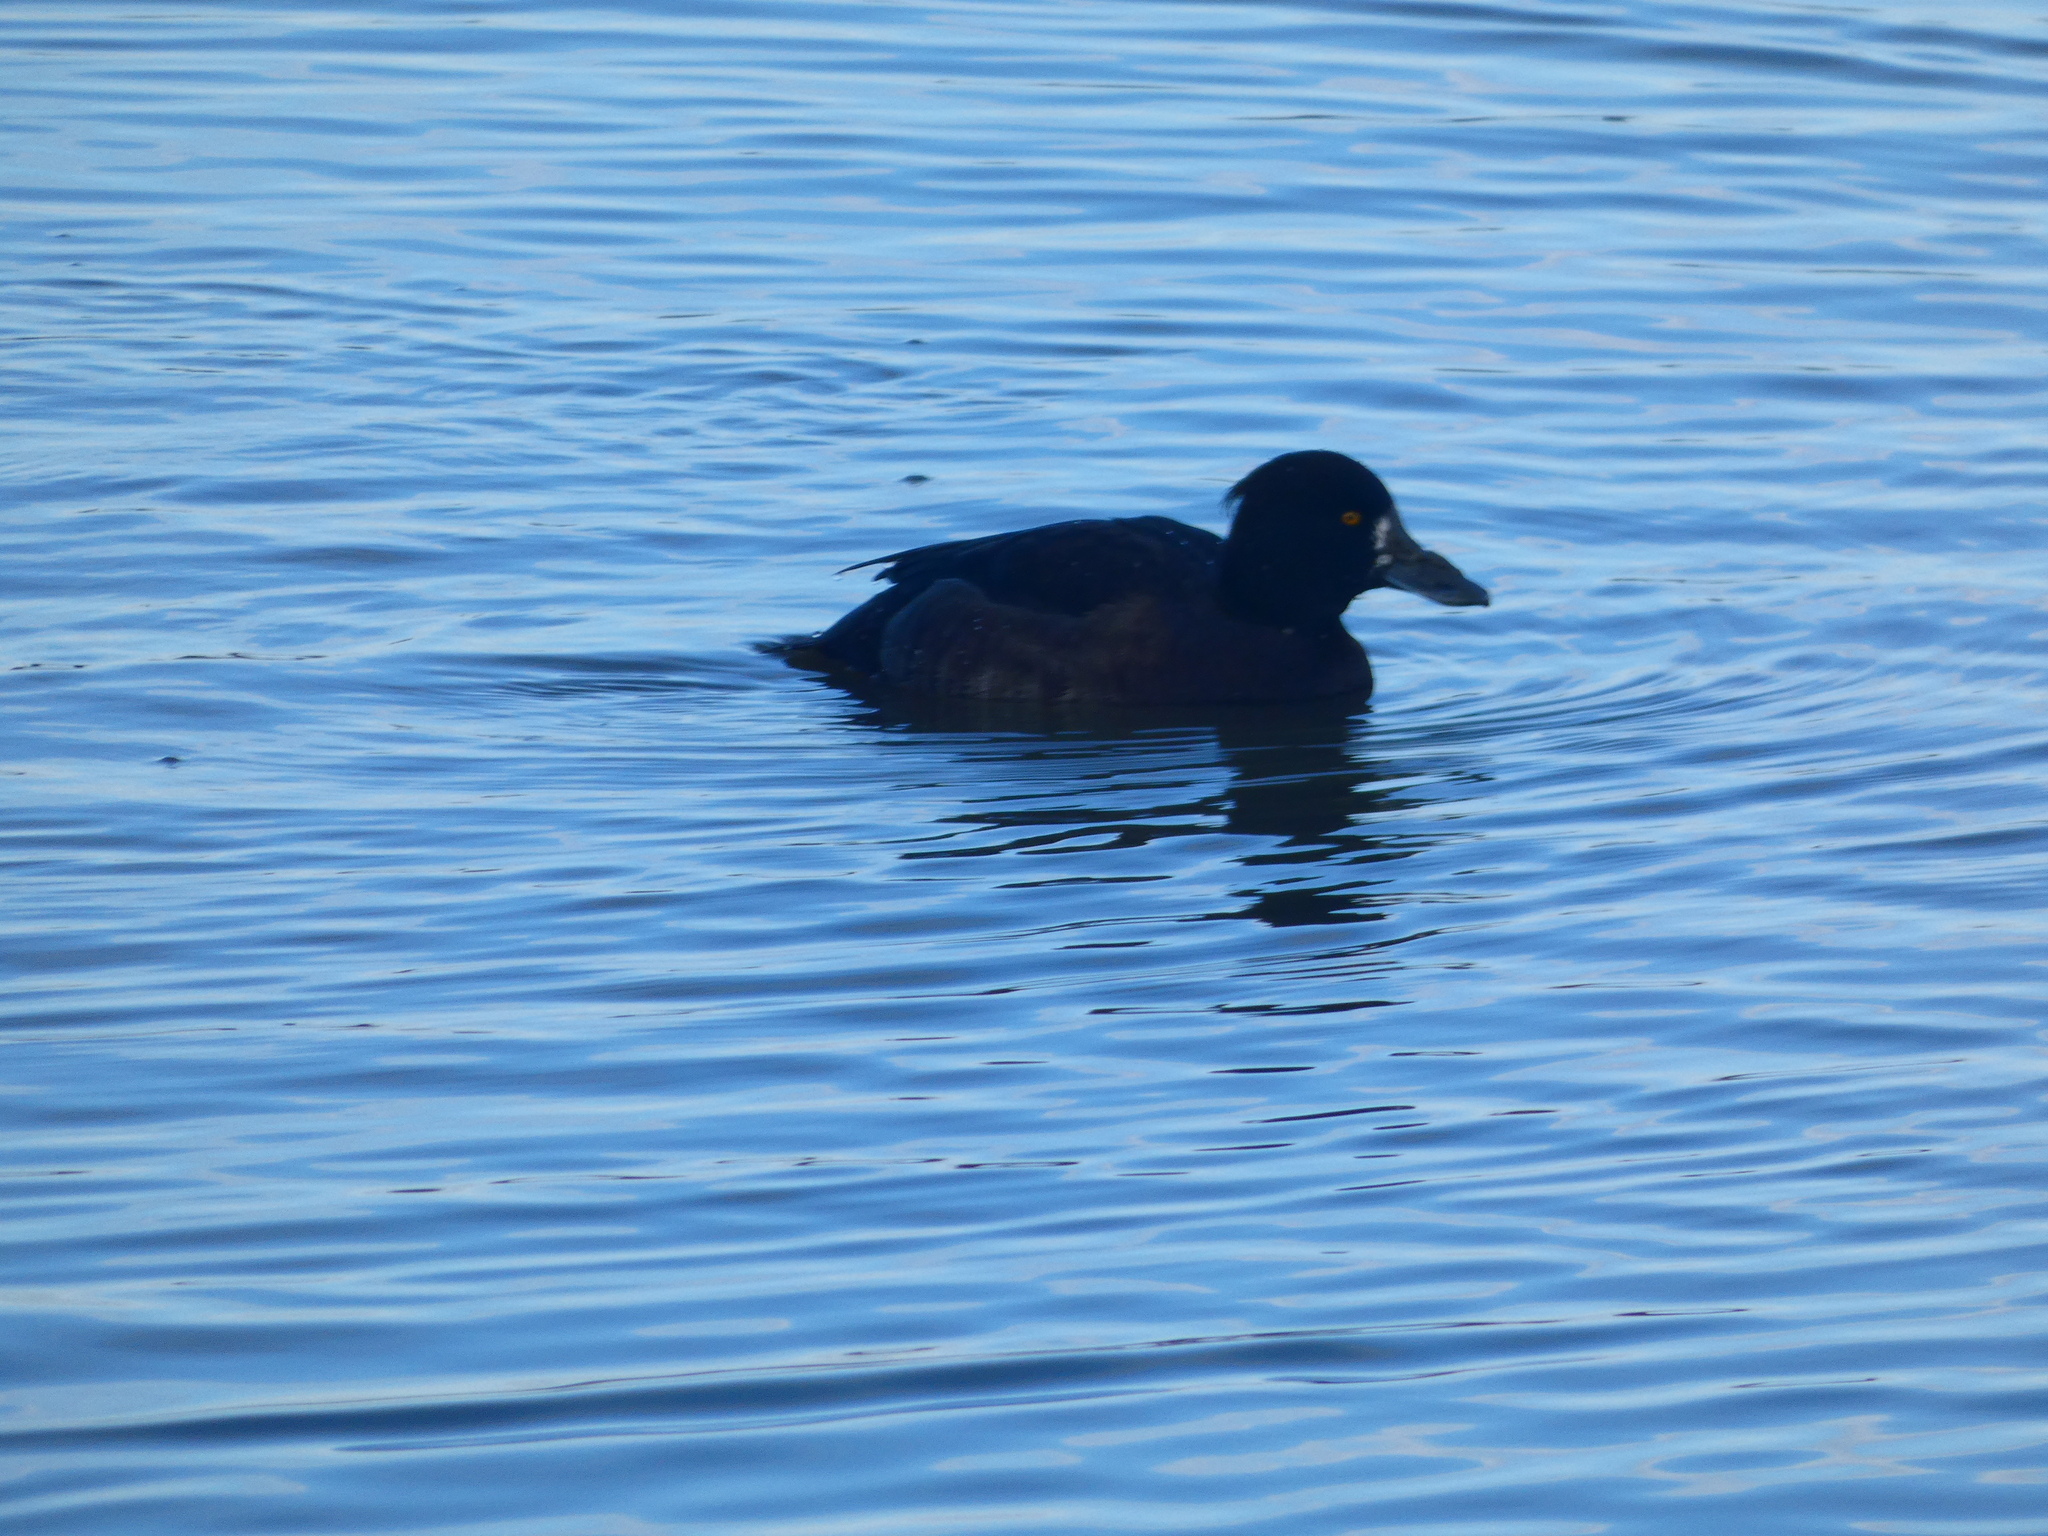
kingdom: Animalia
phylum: Chordata
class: Aves
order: Anseriformes
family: Anatidae
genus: Aythya
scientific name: Aythya fuligula
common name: Tufted duck
